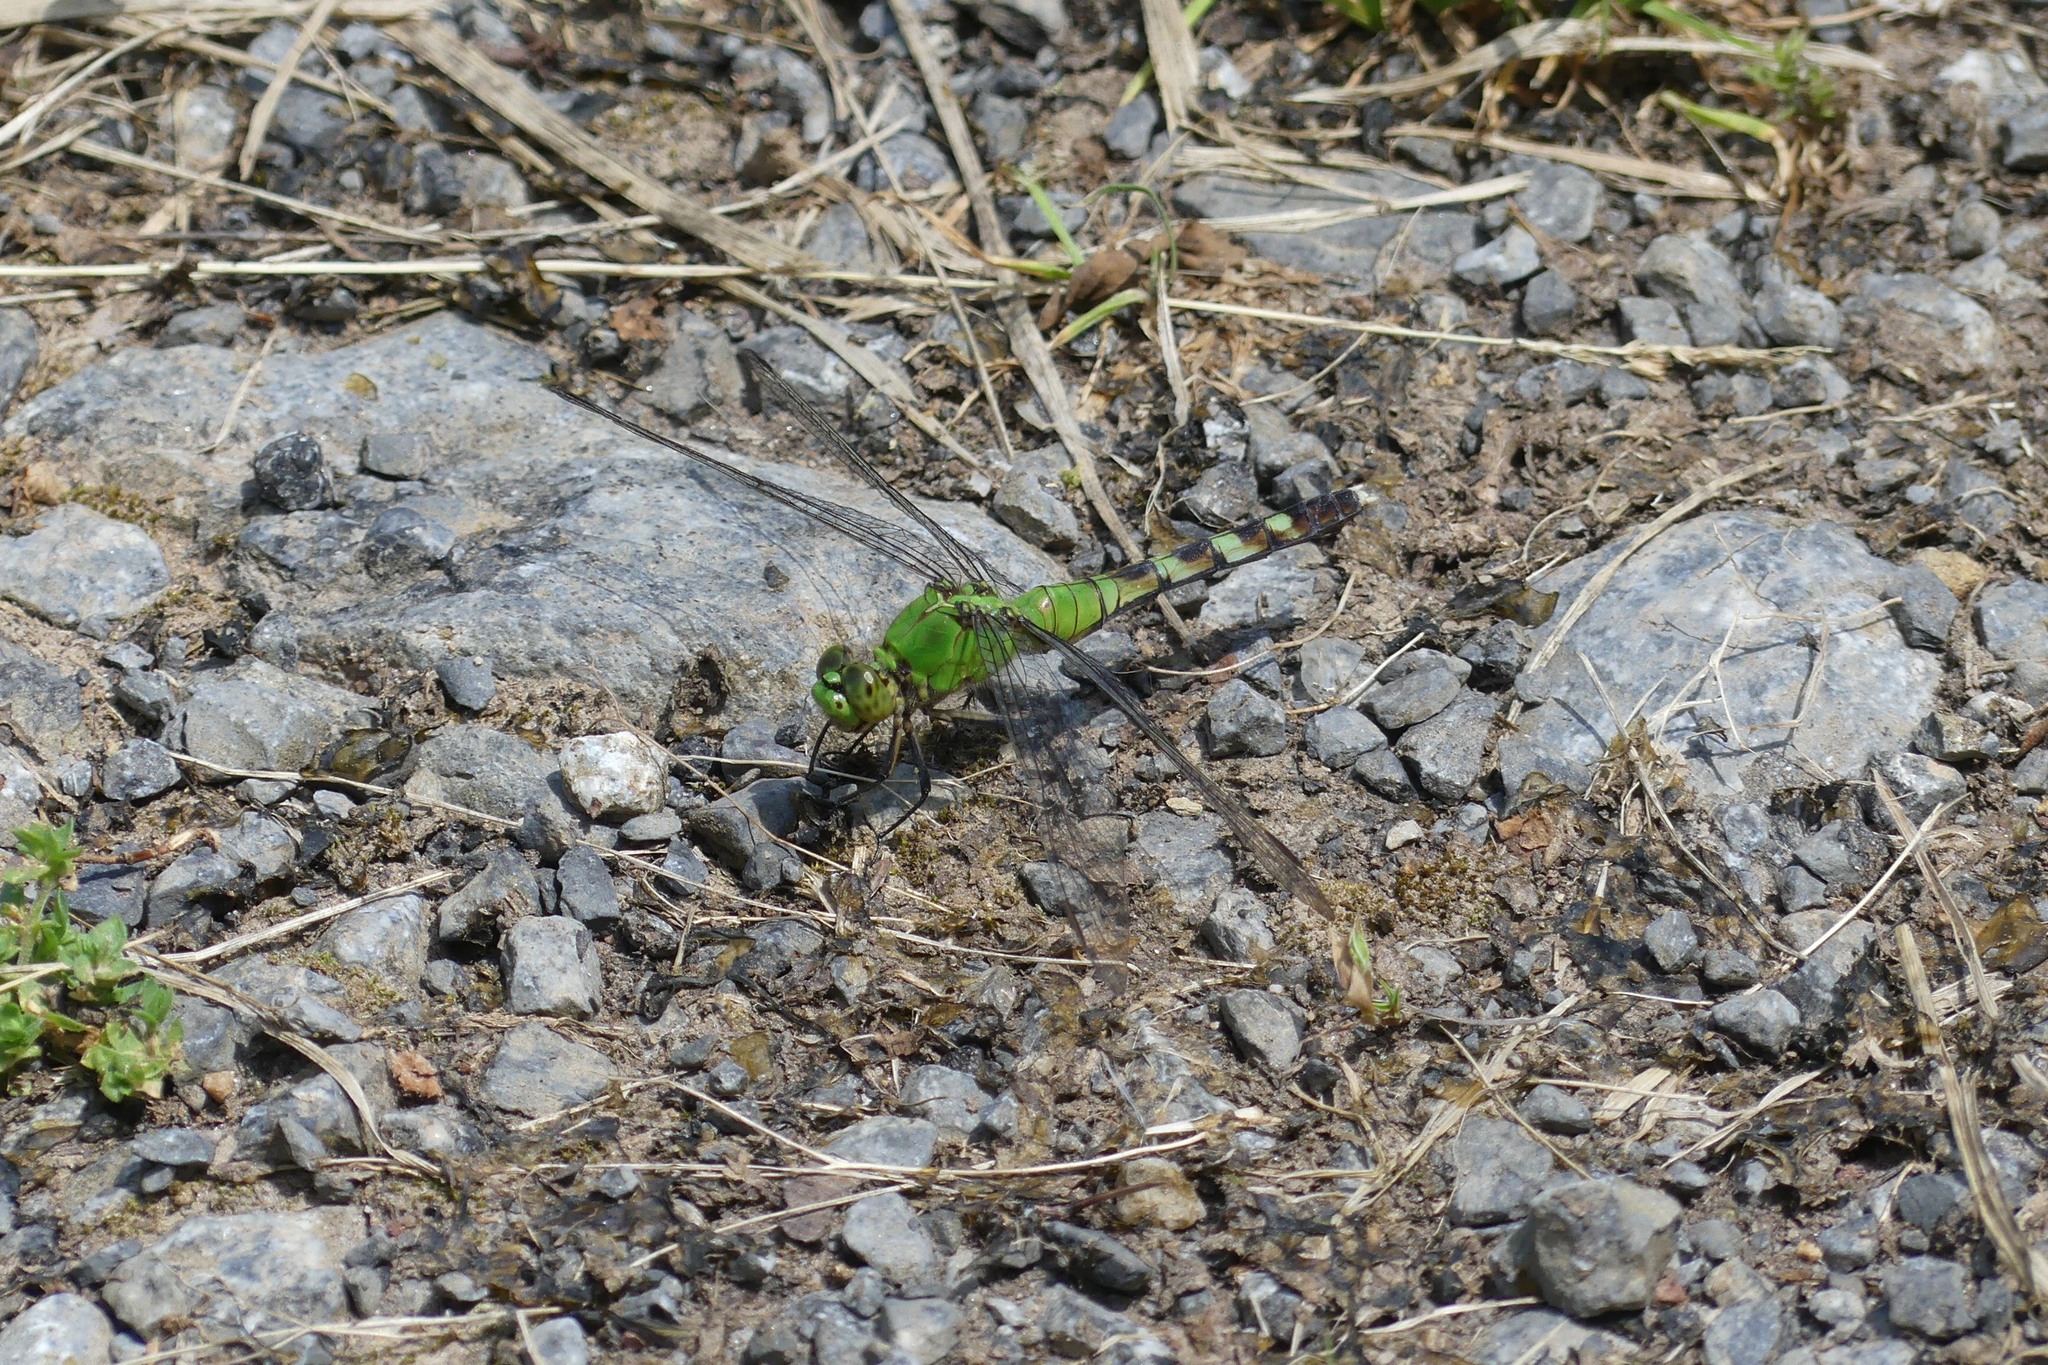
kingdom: Animalia
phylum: Arthropoda
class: Insecta
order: Odonata
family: Libellulidae
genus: Erythemis
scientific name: Erythemis simplicicollis
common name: Eastern pondhawk
